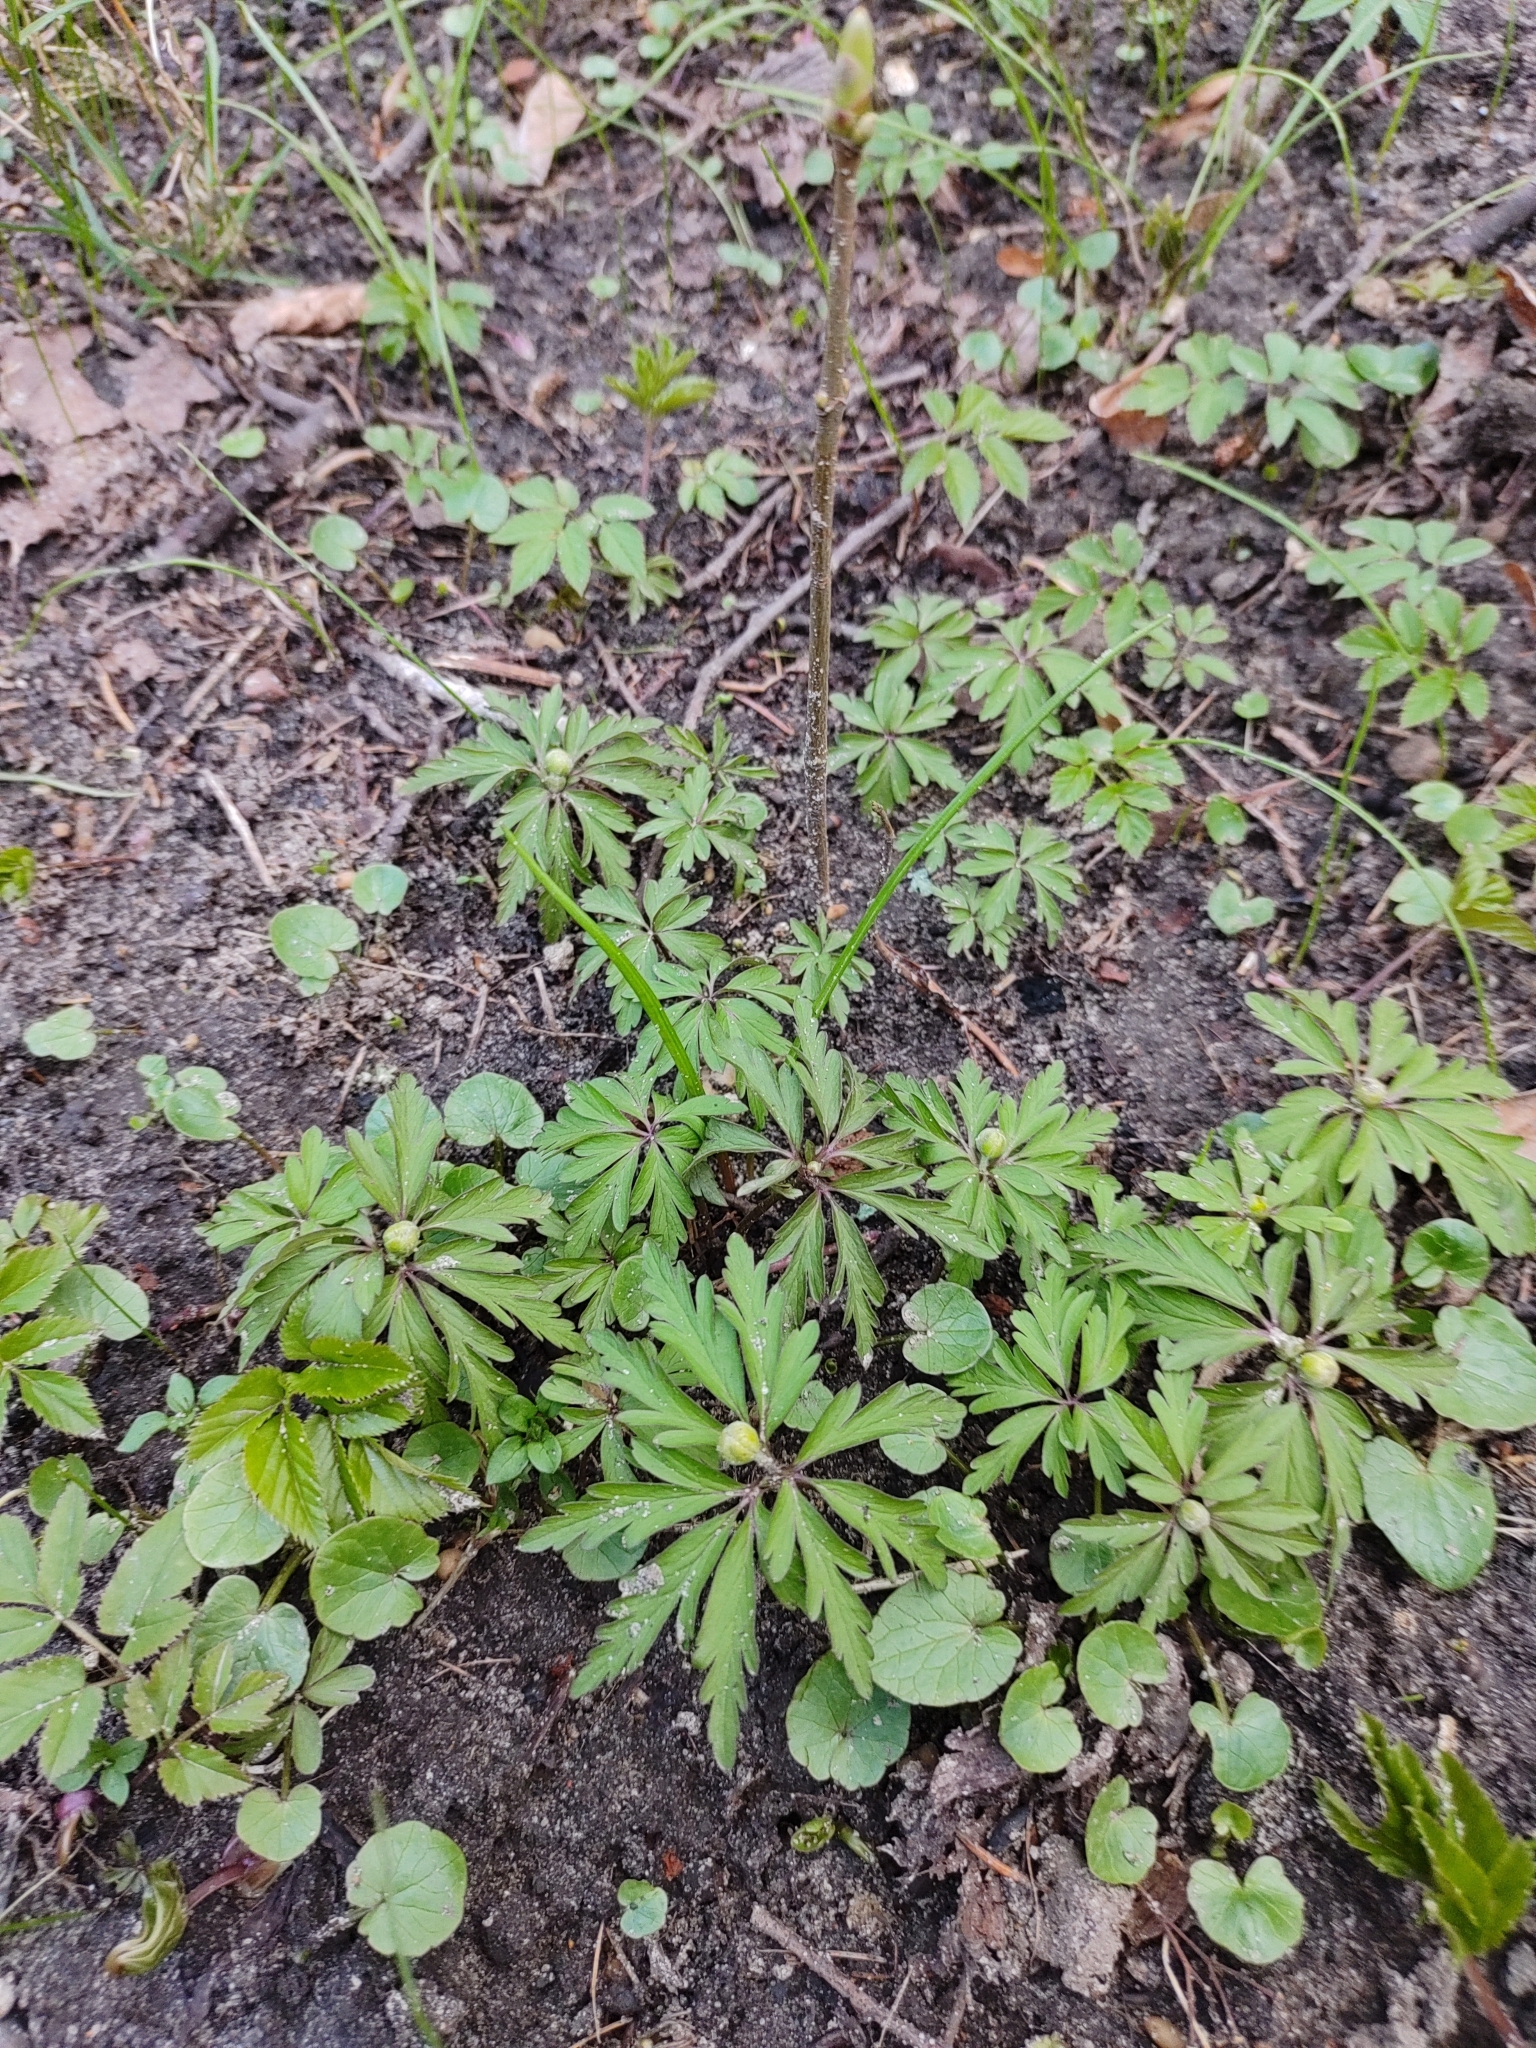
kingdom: Plantae
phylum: Tracheophyta
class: Magnoliopsida
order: Ranunculales
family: Ranunculaceae
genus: Anemone
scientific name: Anemone ranunculoides
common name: Yellow anemone
